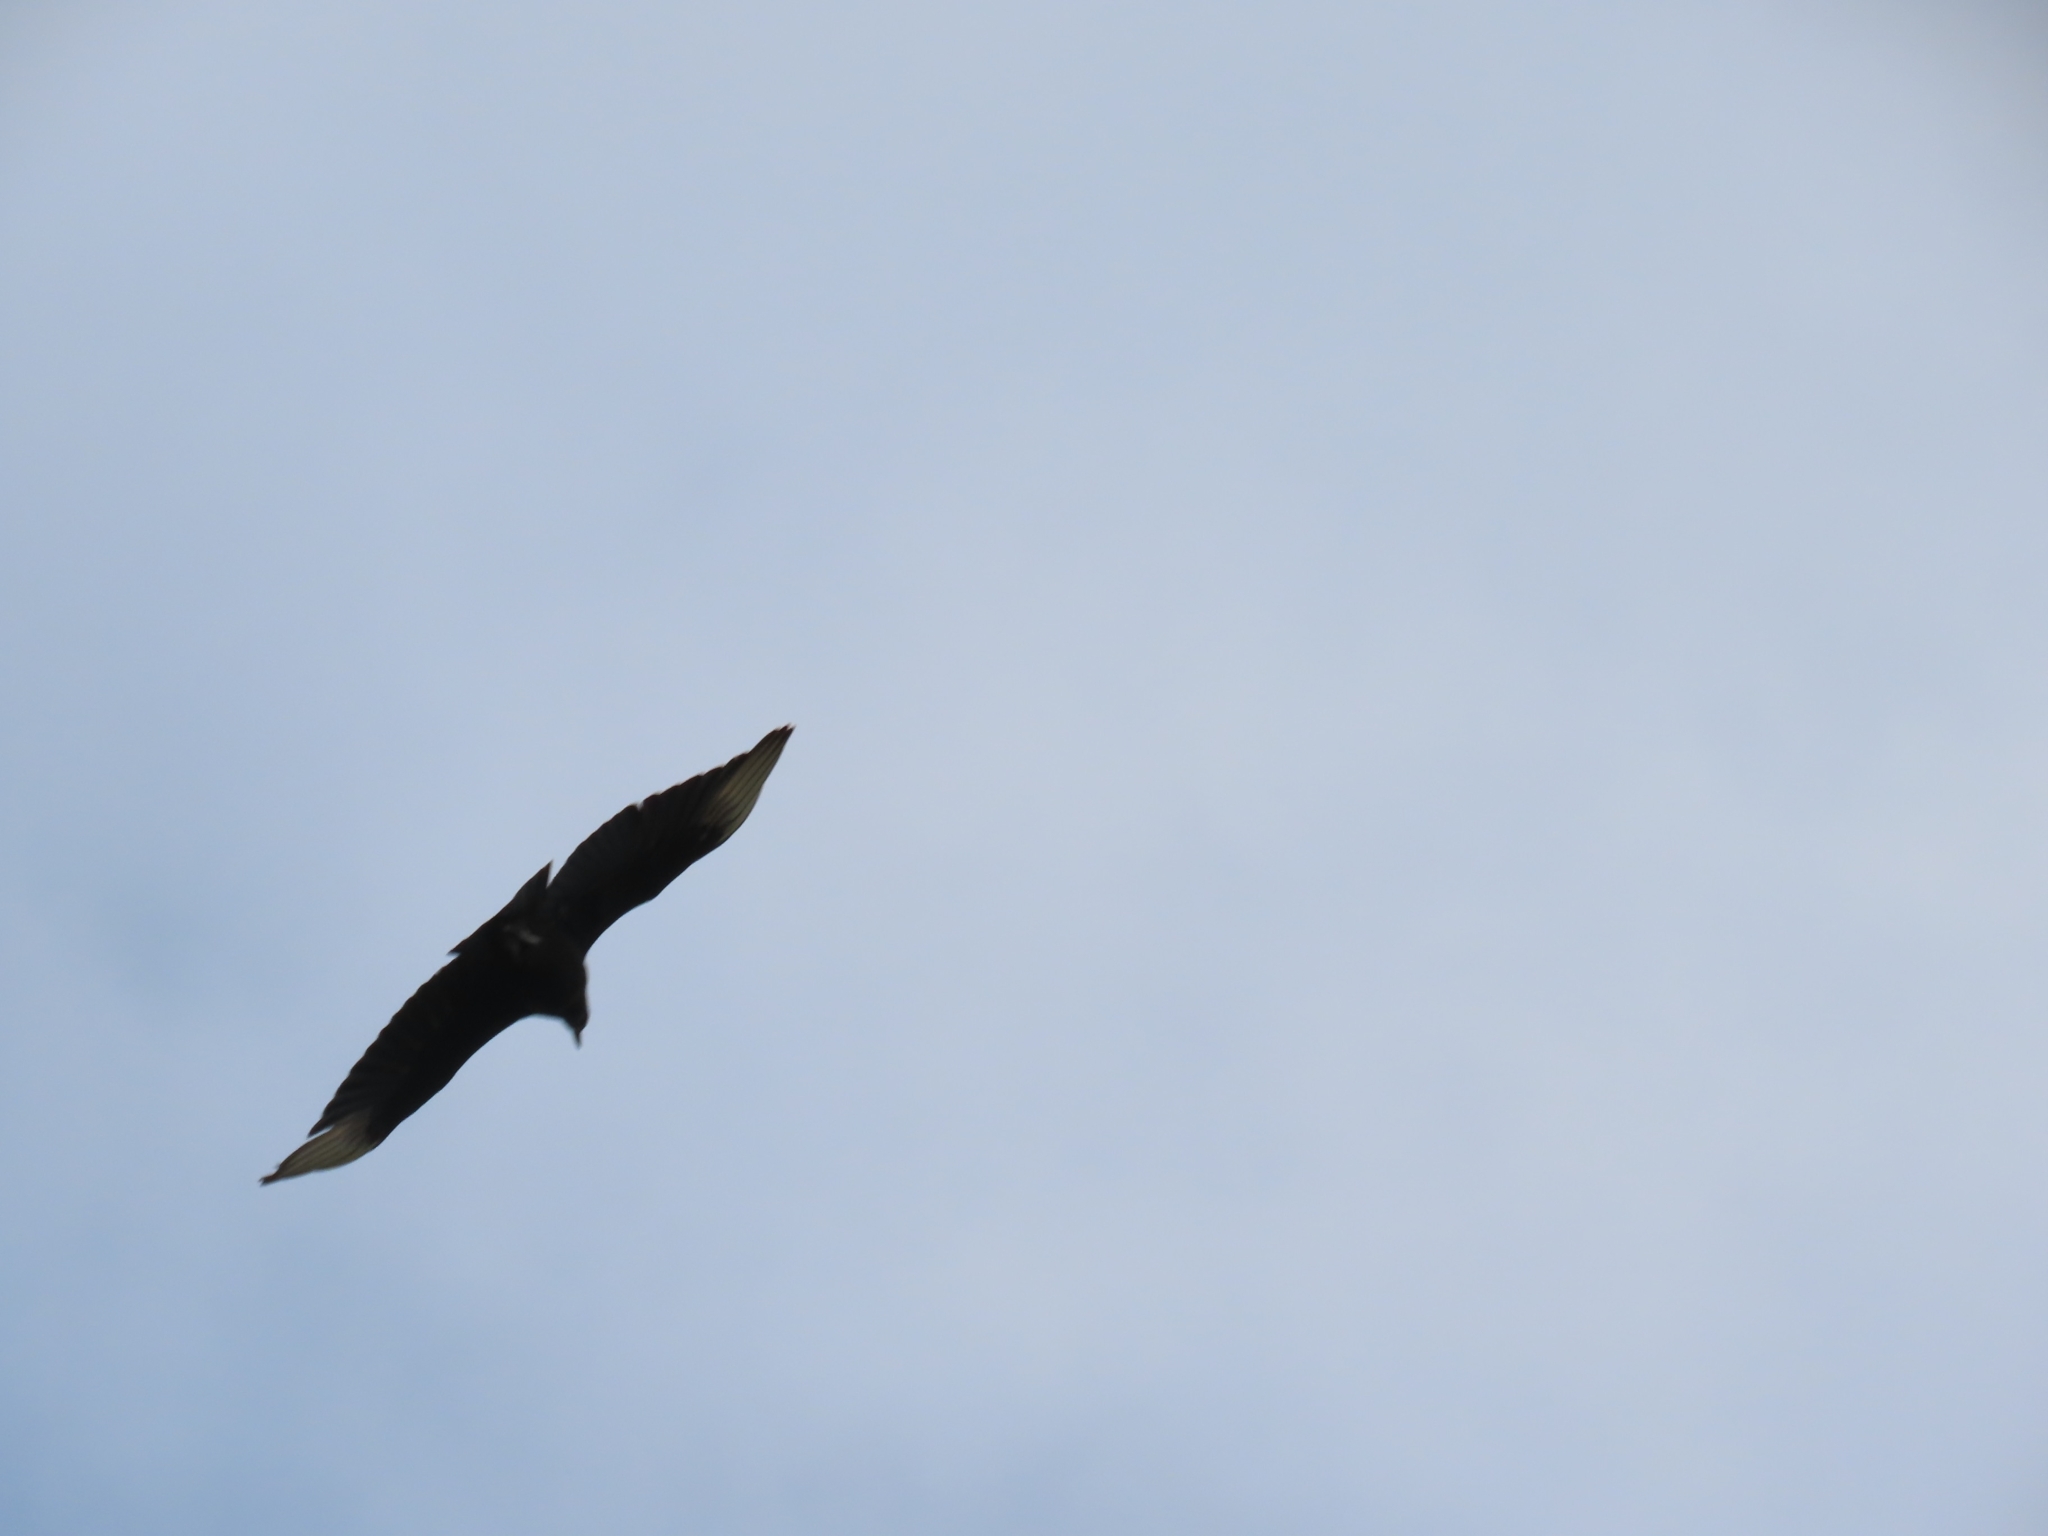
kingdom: Animalia
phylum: Chordata
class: Aves
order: Accipitriformes
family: Cathartidae
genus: Coragyps
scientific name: Coragyps atratus
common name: Black vulture
